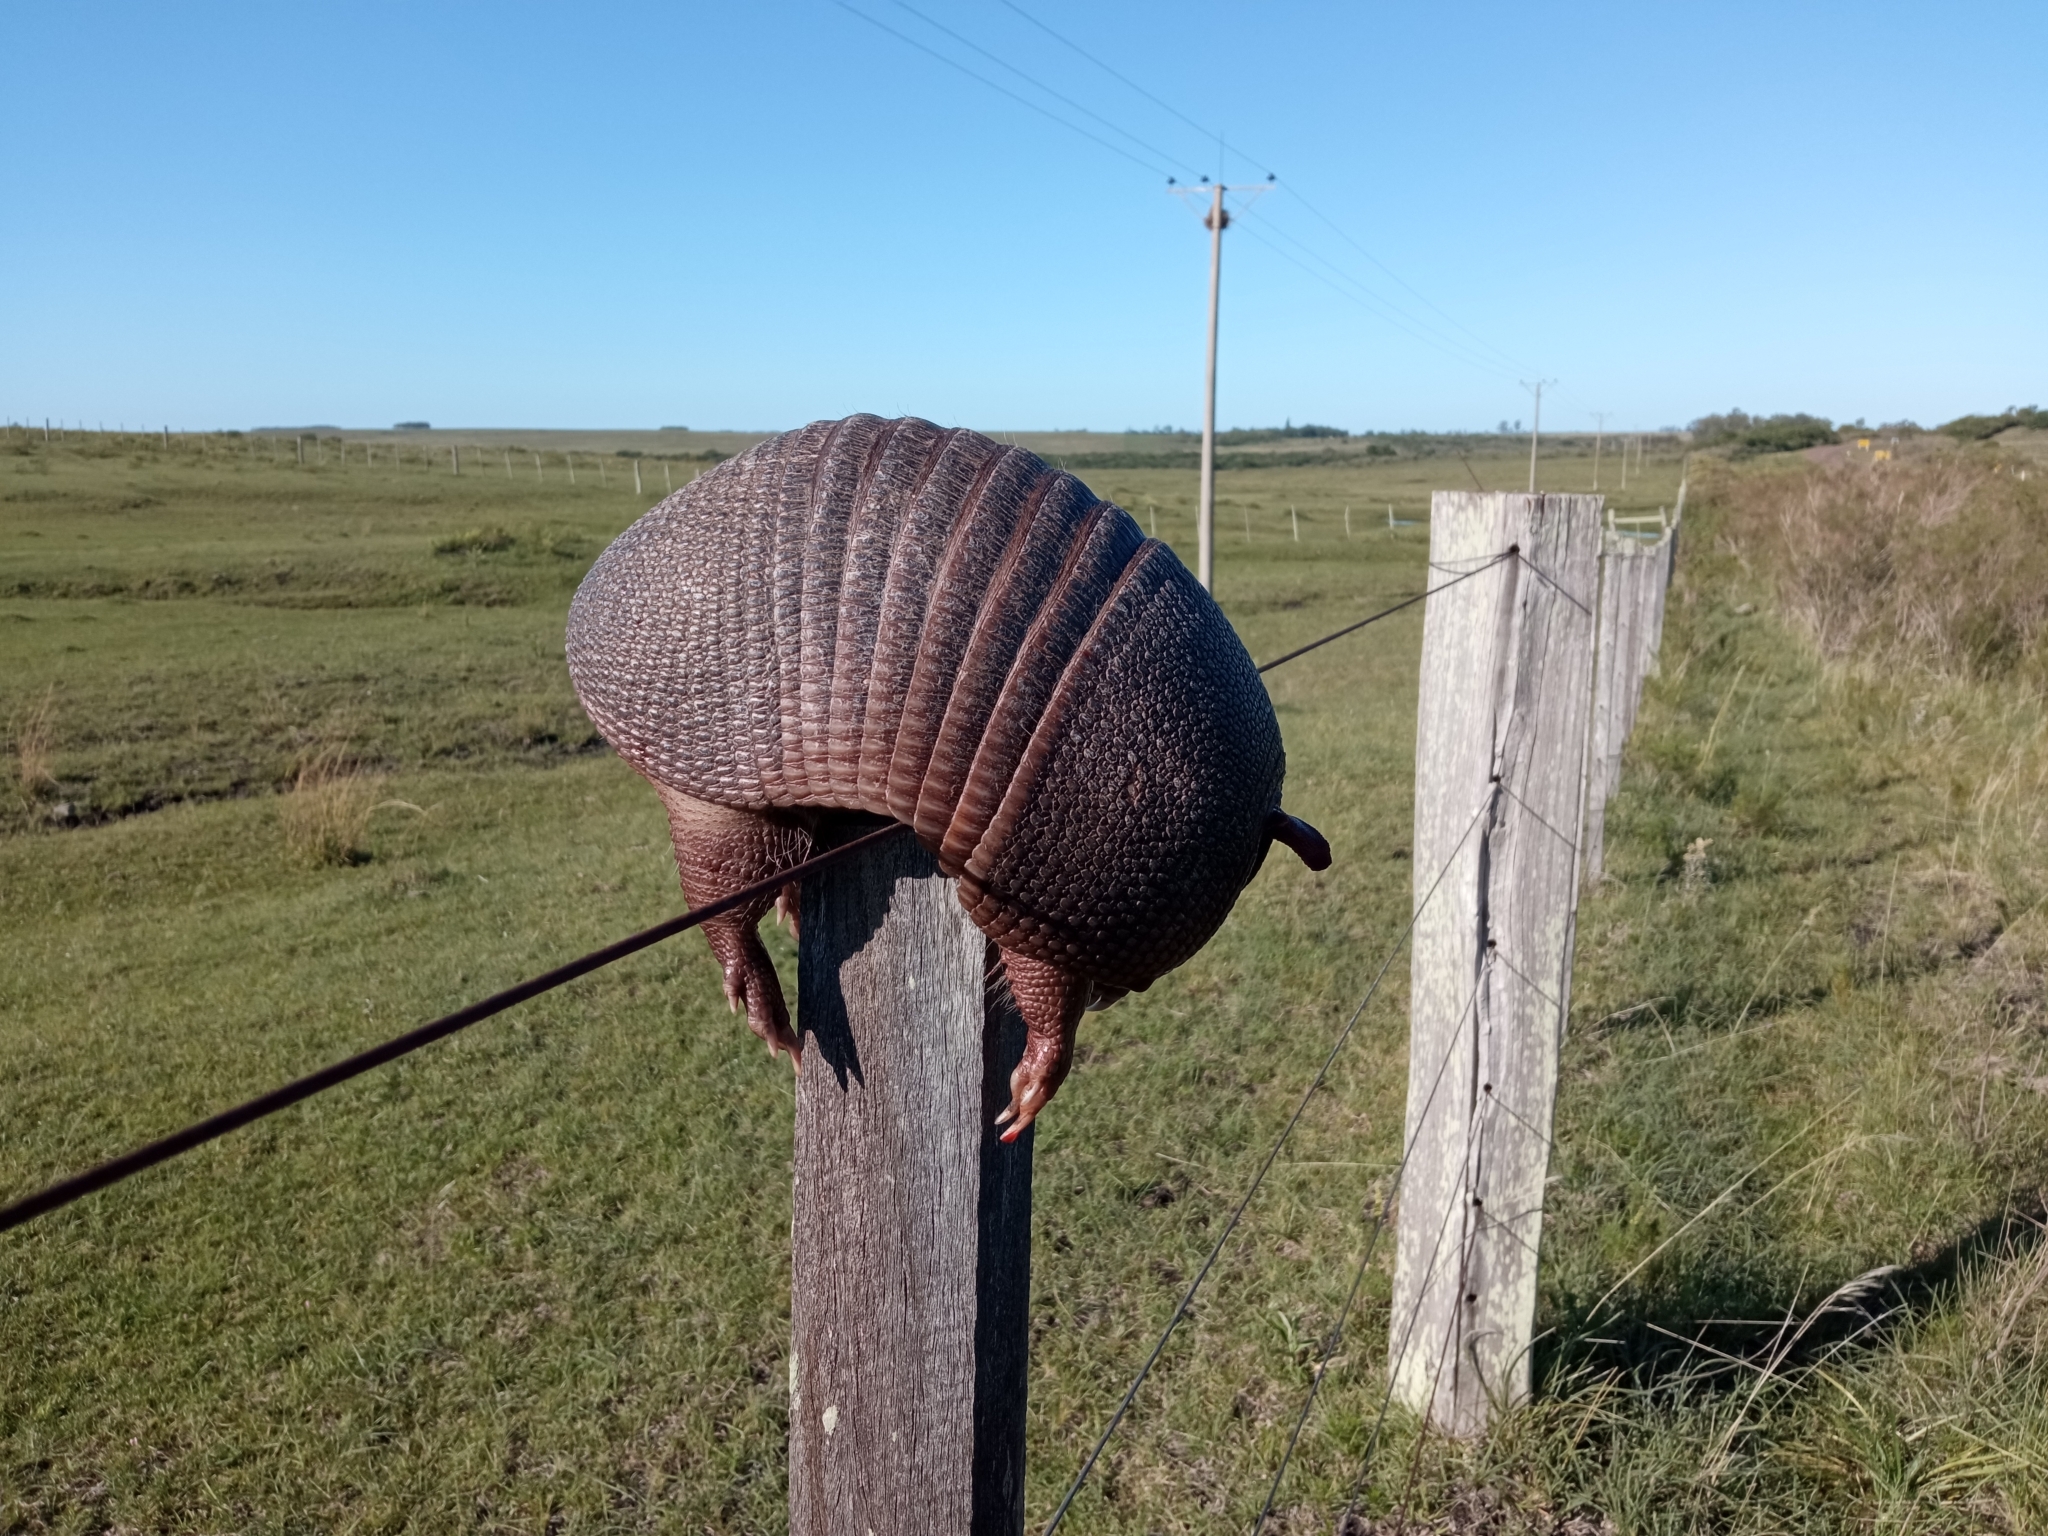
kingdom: Animalia
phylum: Chordata
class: Mammalia
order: Cingulata
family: Dasypodidae
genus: Dasypus
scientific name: Dasypus septemcinctus
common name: Seven-banded armadillo
